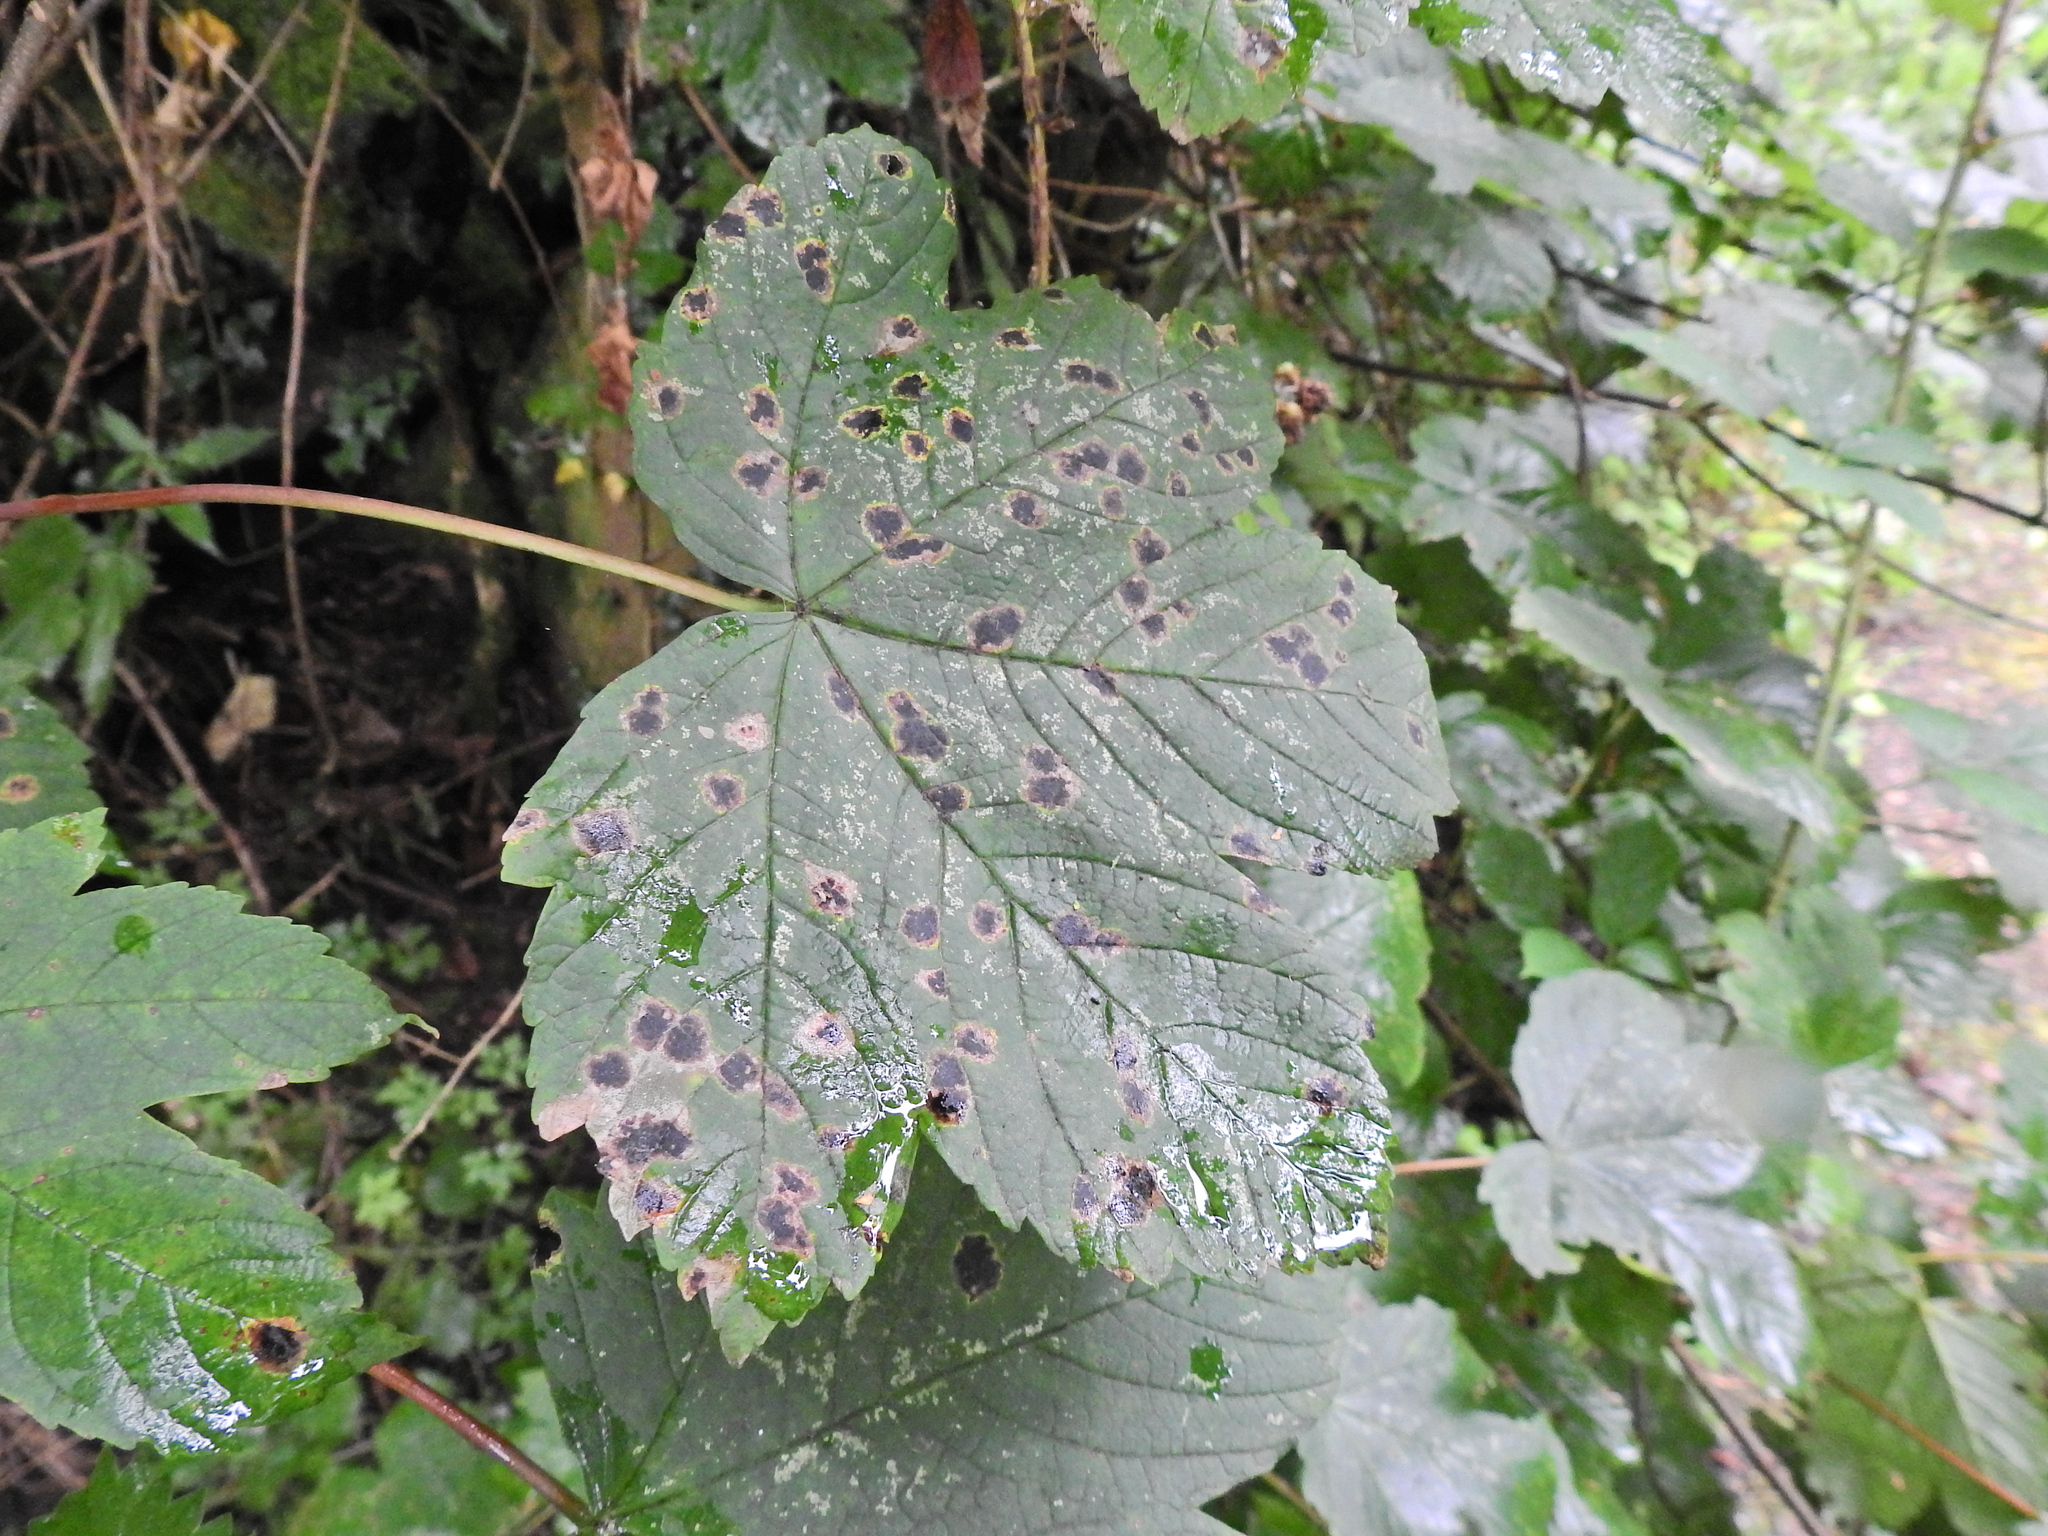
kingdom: Fungi
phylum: Ascomycota
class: Leotiomycetes
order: Rhytismatales
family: Rhytismataceae
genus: Rhytisma
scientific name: Rhytisma acerinum
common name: European tar spot
